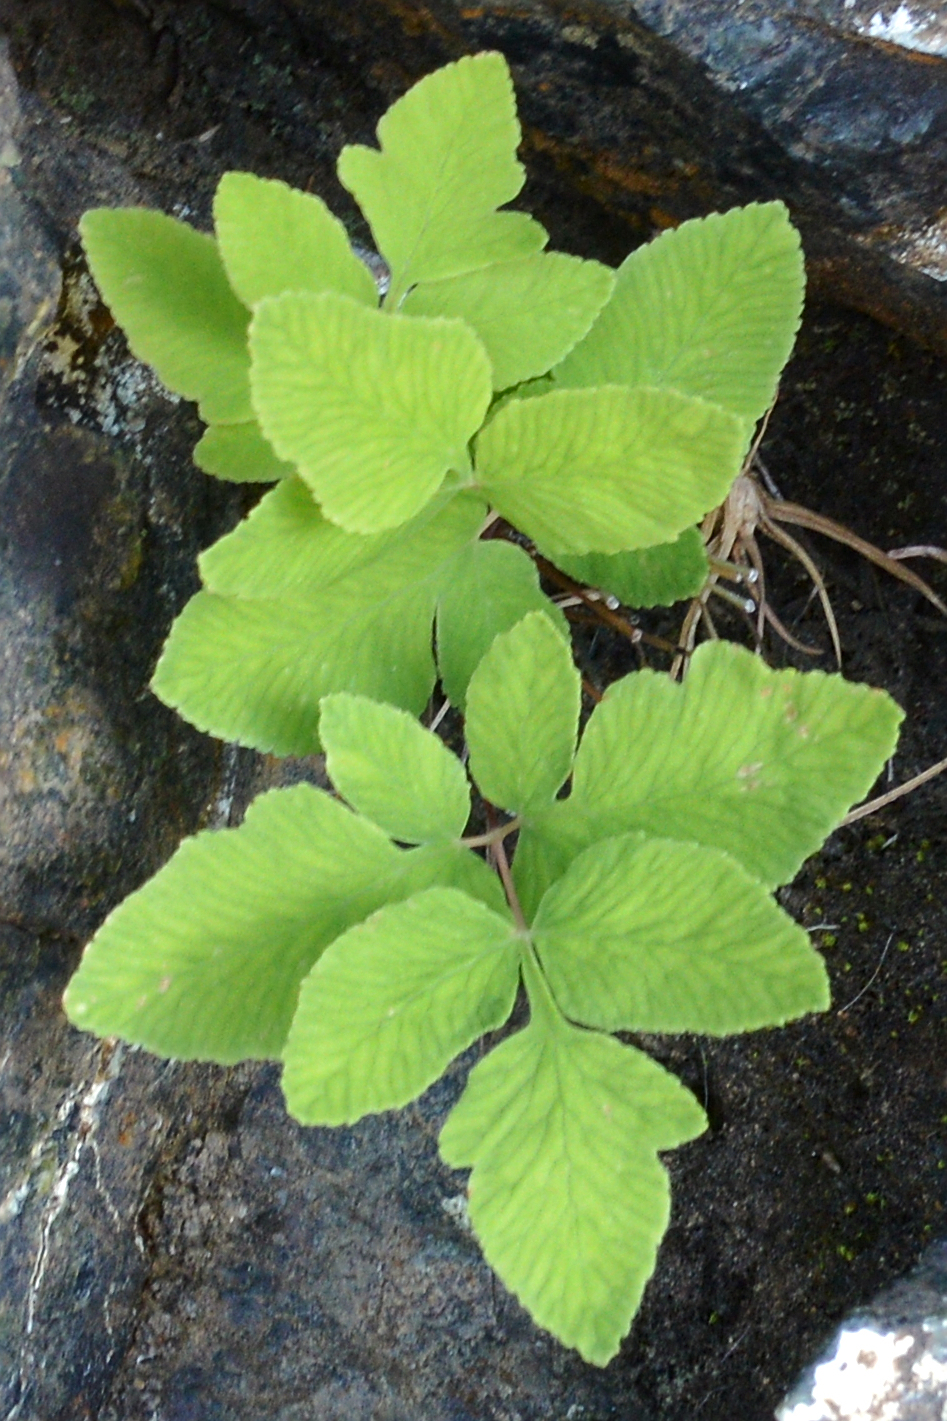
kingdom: Plantae
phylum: Tracheophyta
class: Polypodiopsida
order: Osmundales
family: Osmundaceae
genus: Osmunda
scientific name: Osmunda spectabilis
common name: American royal fern
